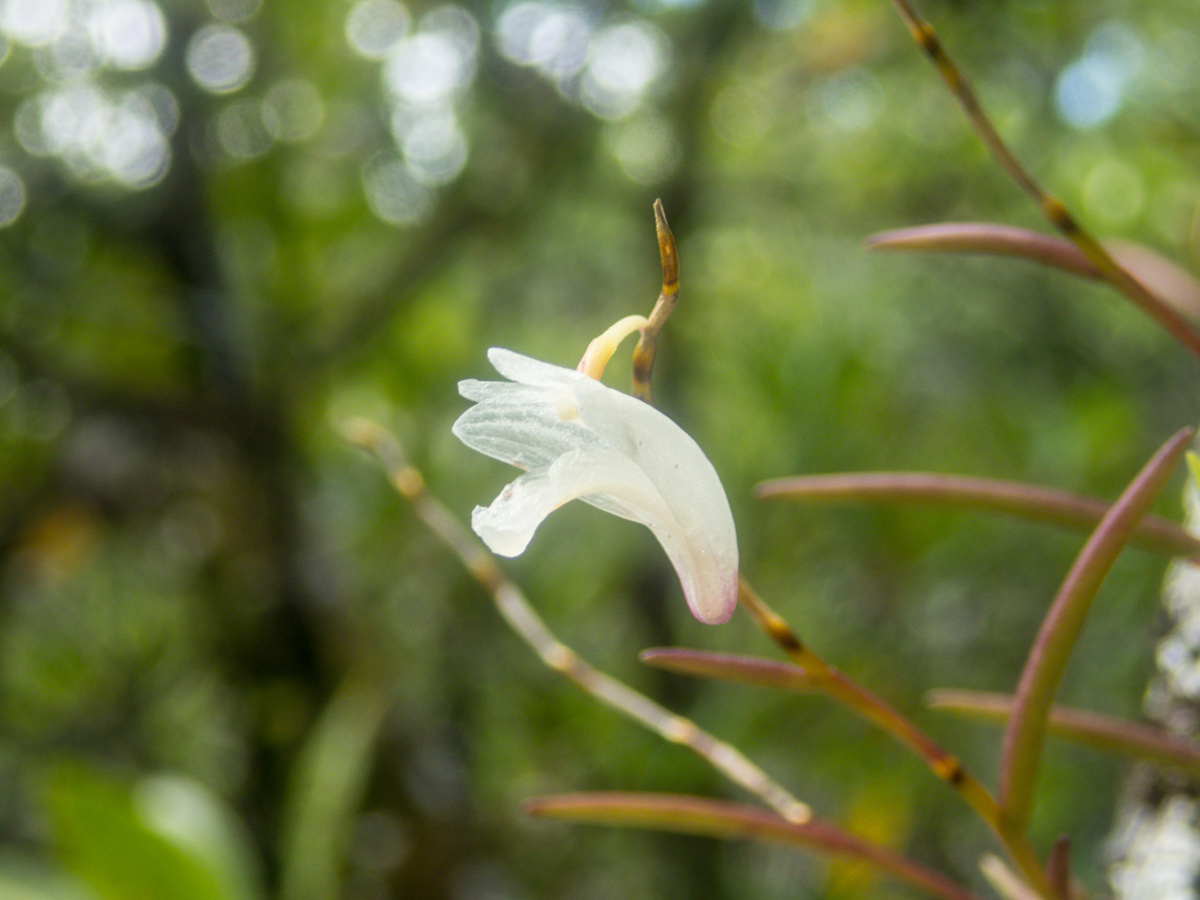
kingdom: Plantae
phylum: Tracheophyta
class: Liliopsida
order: Asparagales
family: Orchidaceae
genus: Dendrobium
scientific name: Dendrobium acerosum
